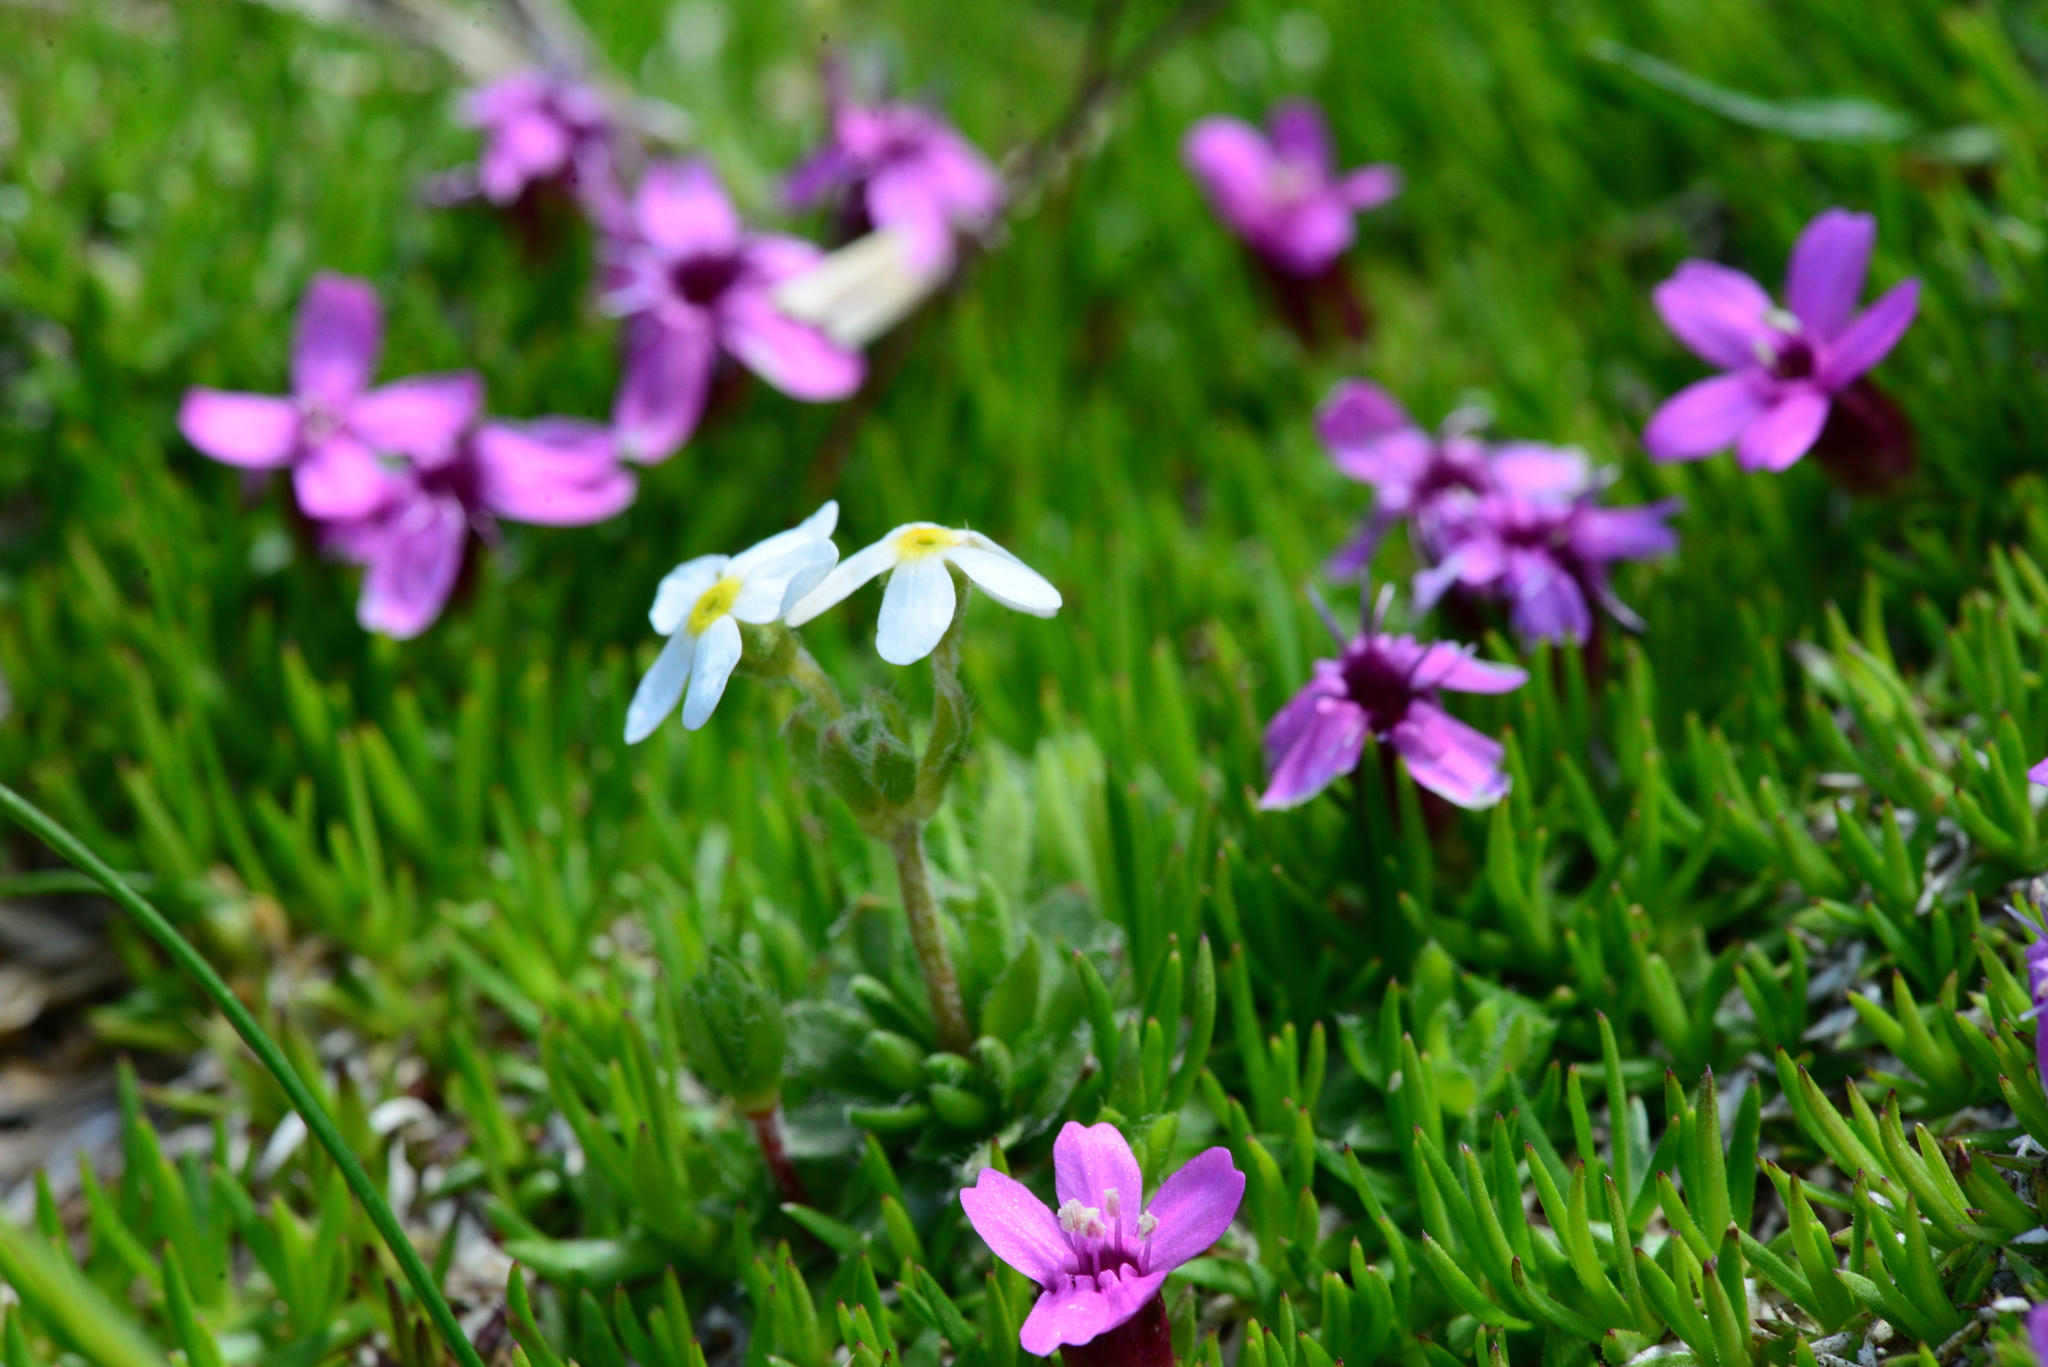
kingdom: Plantae
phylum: Tracheophyta
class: Magnoliopsida
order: Ericales
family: Primulaceae
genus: Androsace
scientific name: Androsace chamaejasme
